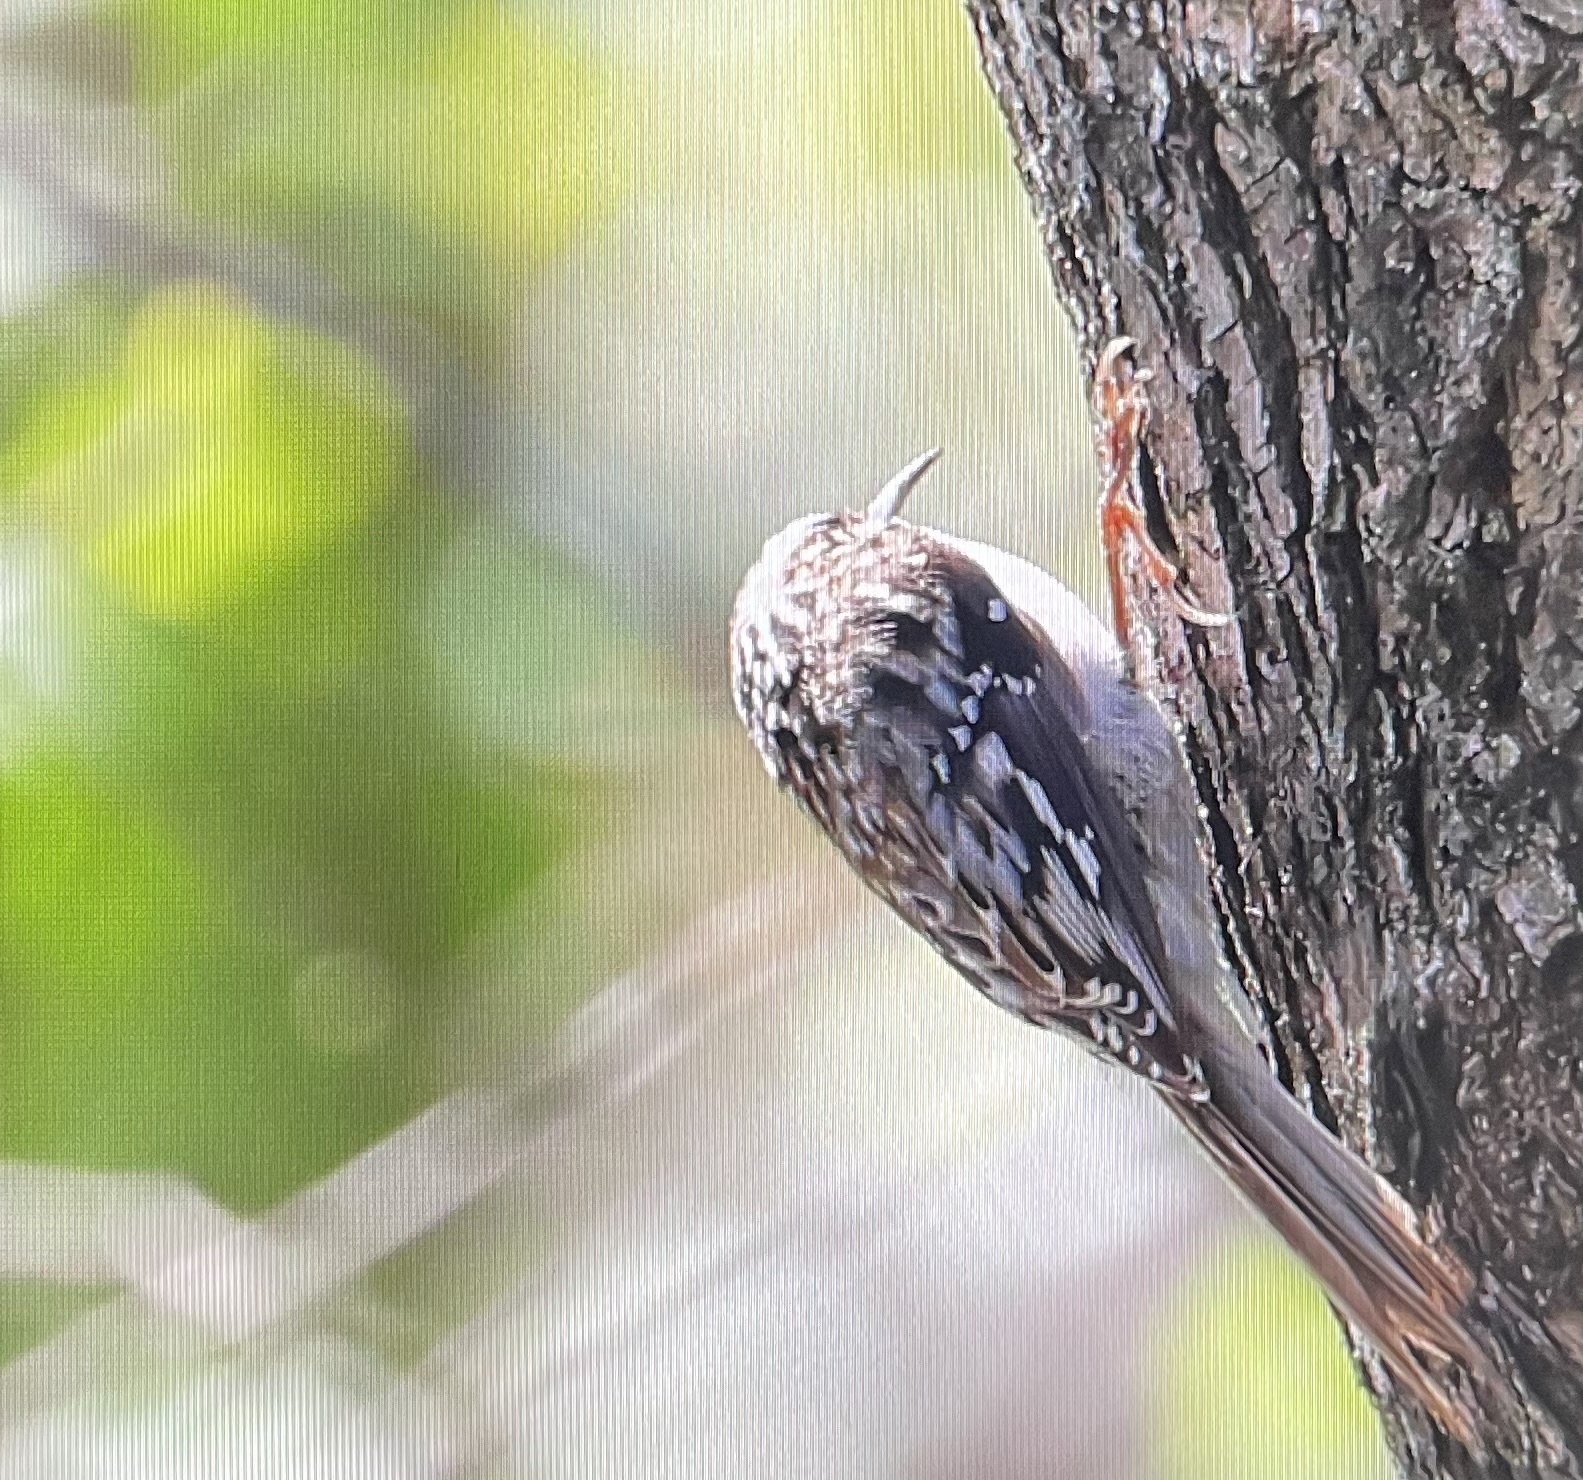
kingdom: Animalia
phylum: Chordata
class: Aves
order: Passeriformes
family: Certhiidae
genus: Certhia
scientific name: Certhia americana
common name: Brown creeper
